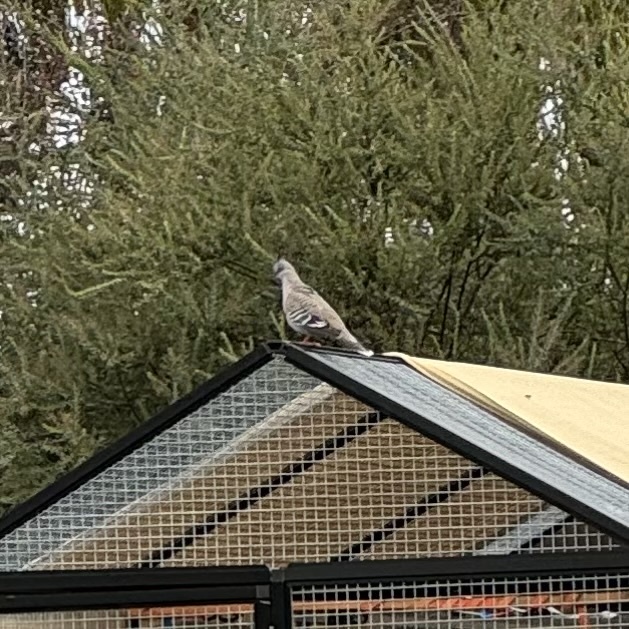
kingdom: Animalia
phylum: Chordata
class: Aves
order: Columbiformes
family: Columbidae
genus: Ocyphaps
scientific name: Ocyphaps lophotes
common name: Crested pigeon
